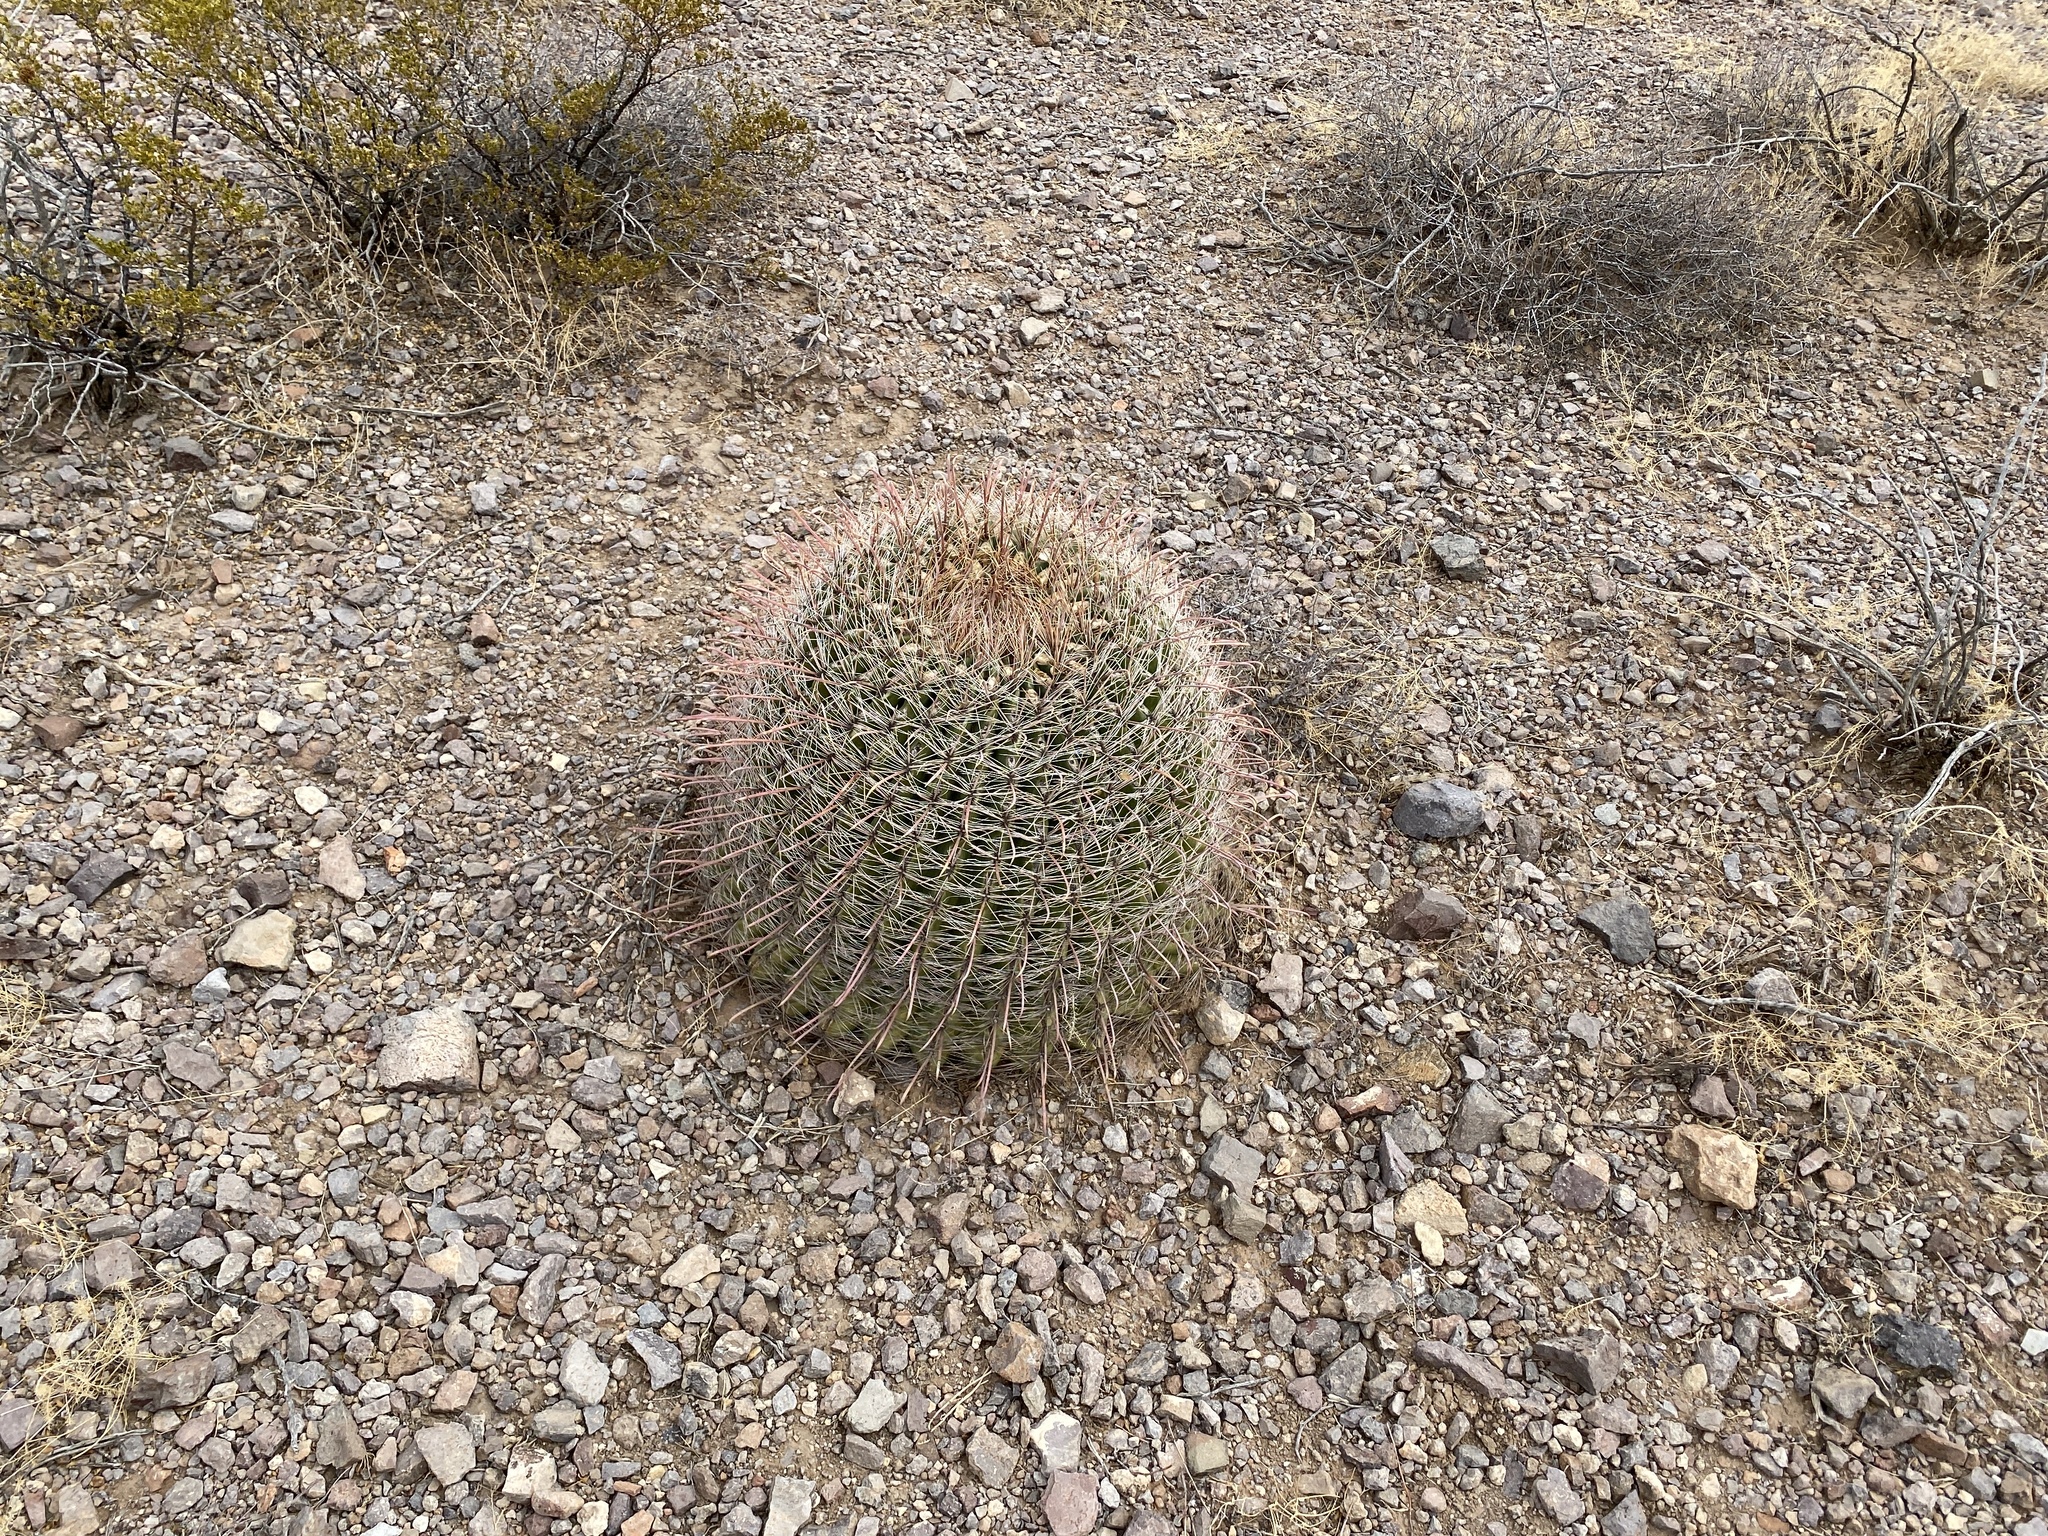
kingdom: Plantae
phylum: Tracheophyta
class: Magnoliopsida
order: Caryophyllales
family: Cactaceae
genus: Ferocactus
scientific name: Ferocactus wislizeni
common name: Candy barrel cactus
